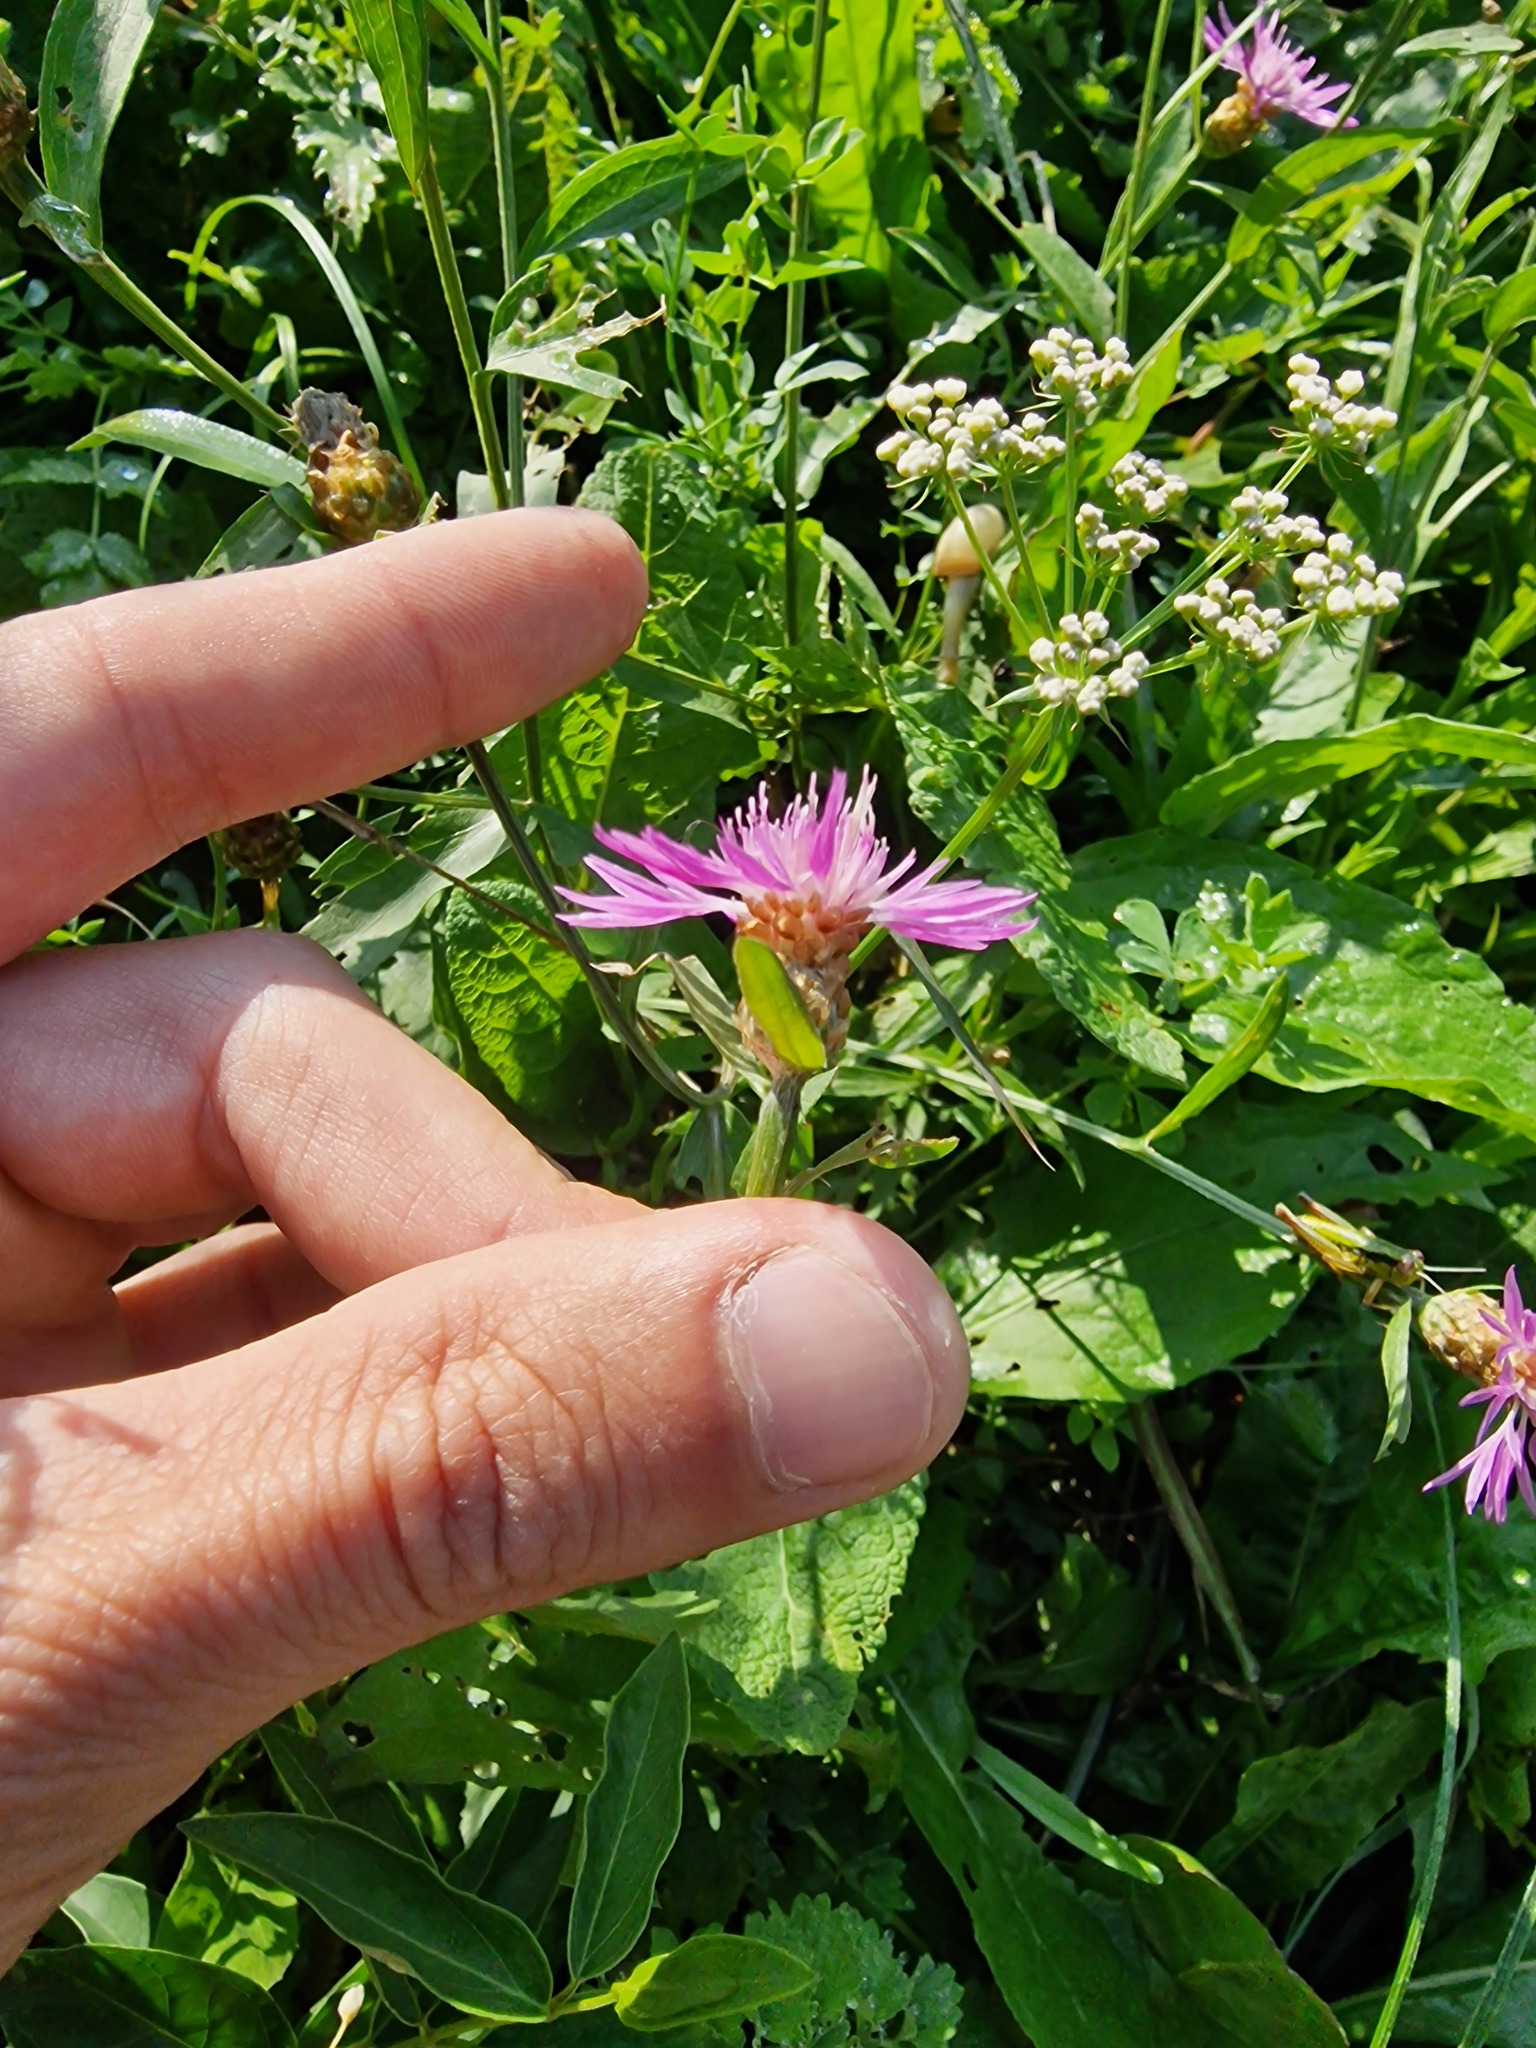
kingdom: Plantae
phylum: Tracheophyta
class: Magnoliopsida
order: Asterales
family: Asteraceae
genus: Centaurea
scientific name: Centaurea jacea
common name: Brown knapweed
